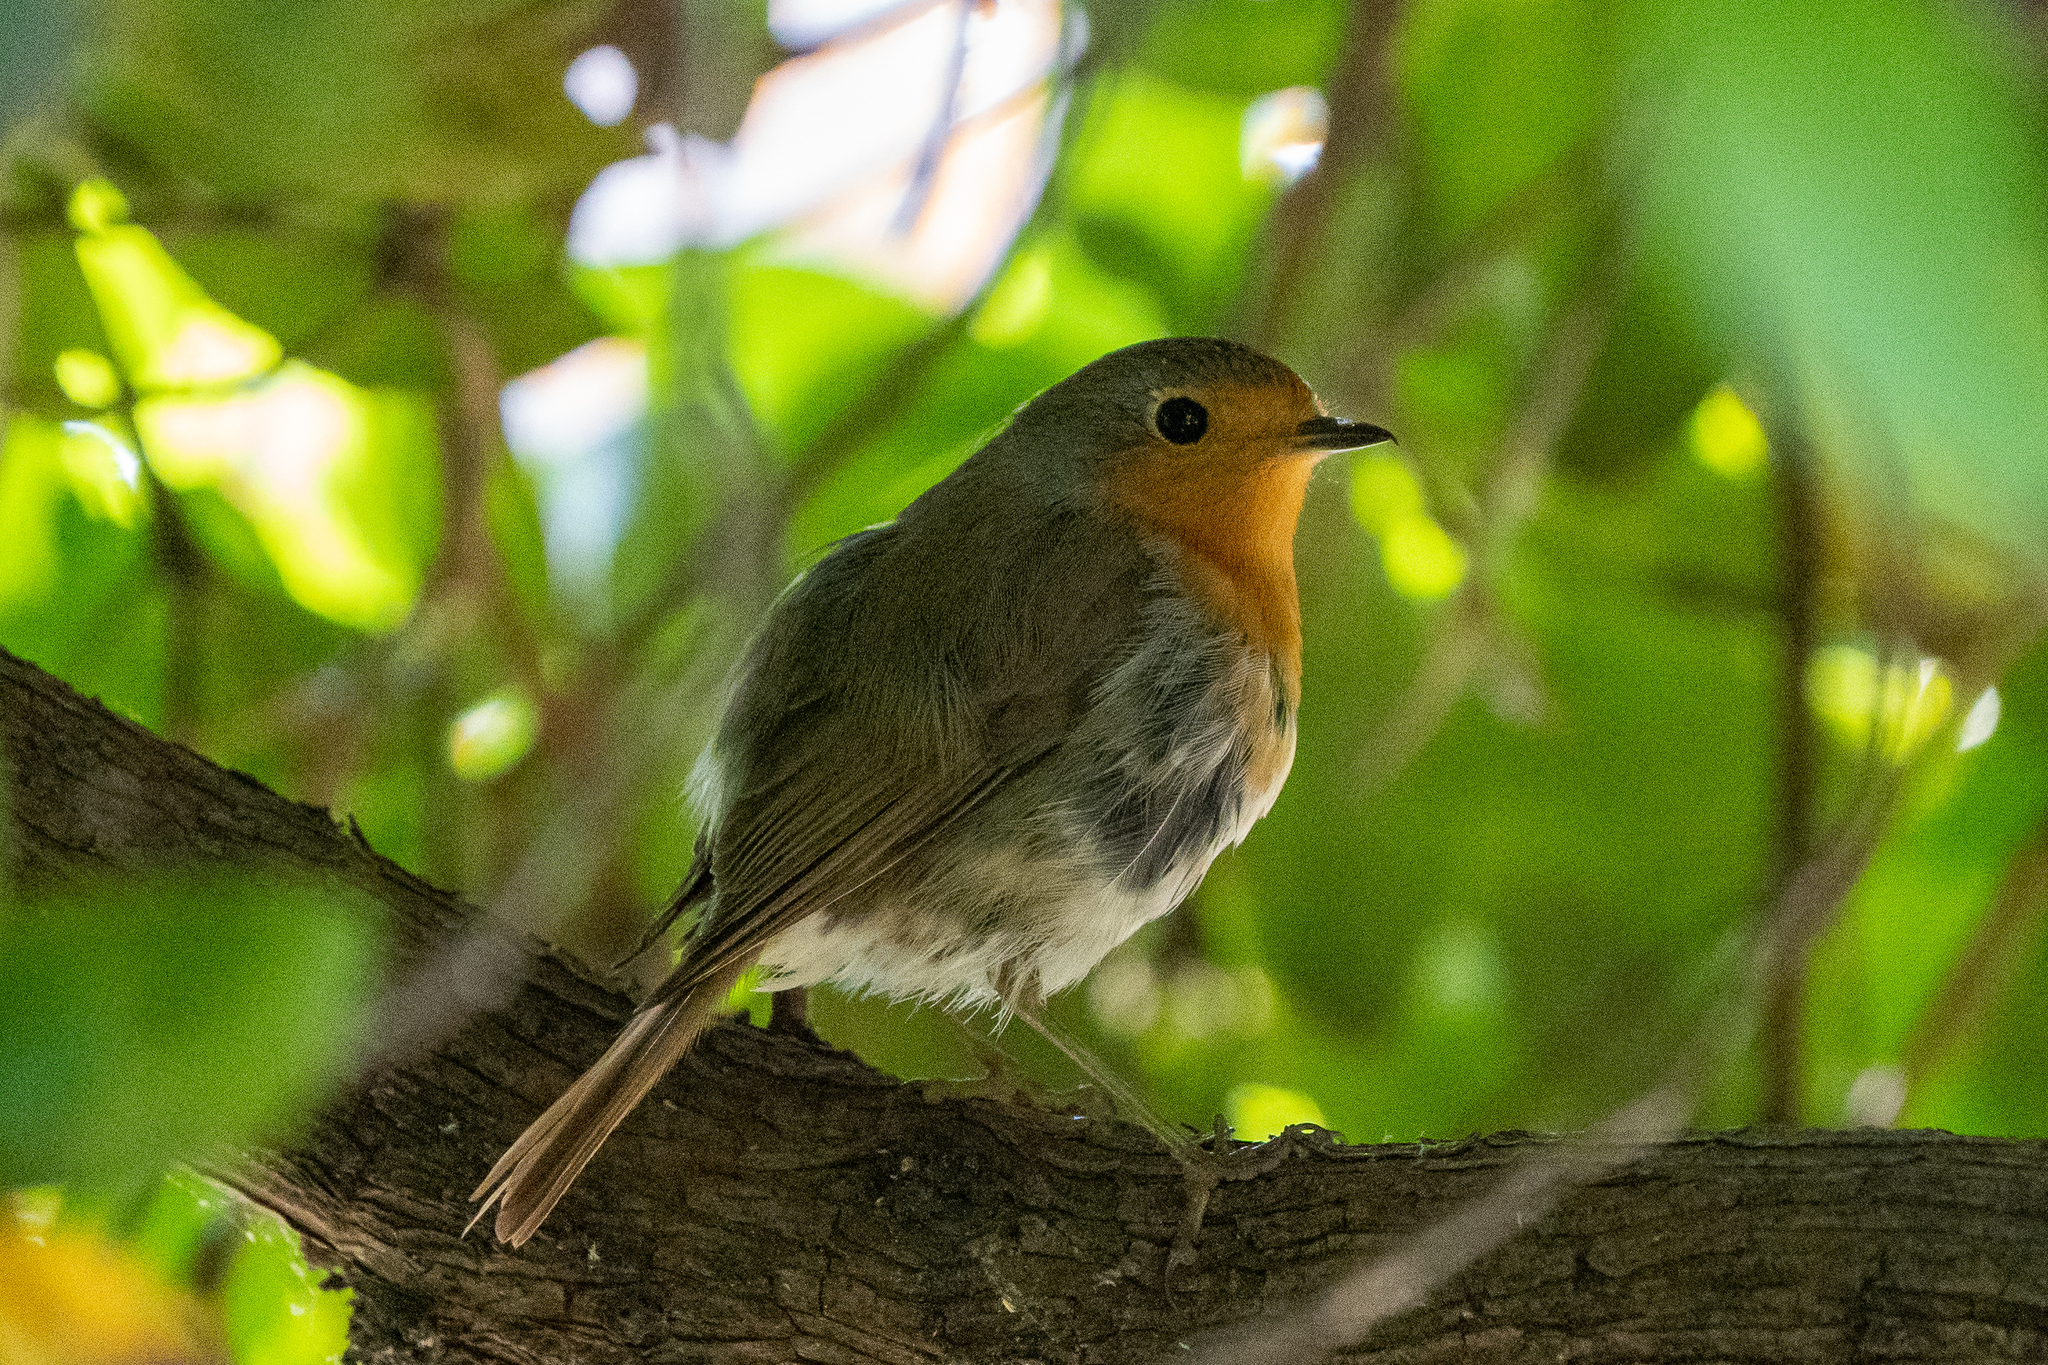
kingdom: Animalia
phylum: Chordata
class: Aves
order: Passeriformes
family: Muscicapidae
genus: Erithacus
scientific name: Erithacus rubecula
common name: European robin
